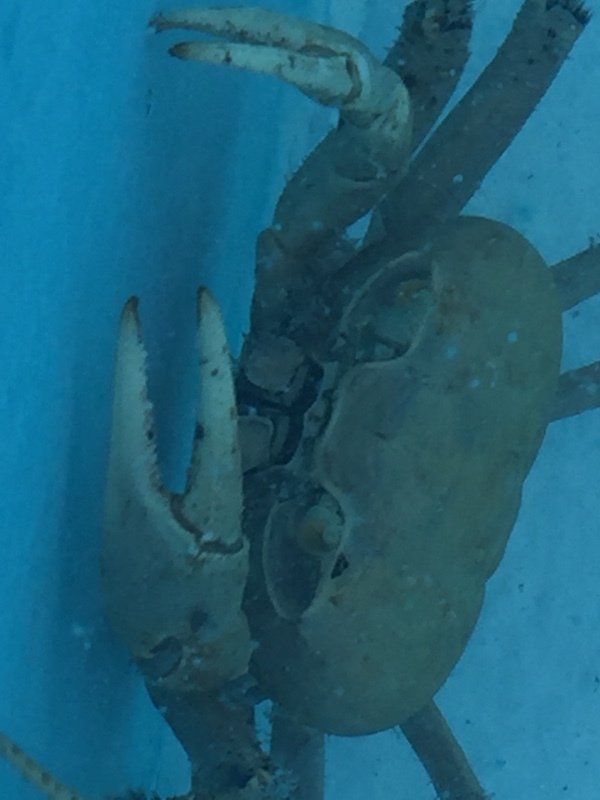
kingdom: Animalia
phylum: Arthropoda
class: Malacostraca
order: Decapoda
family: Gecarcinidae
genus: Cardisoma
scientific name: Cardisoma guanhumi
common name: Great land crab
